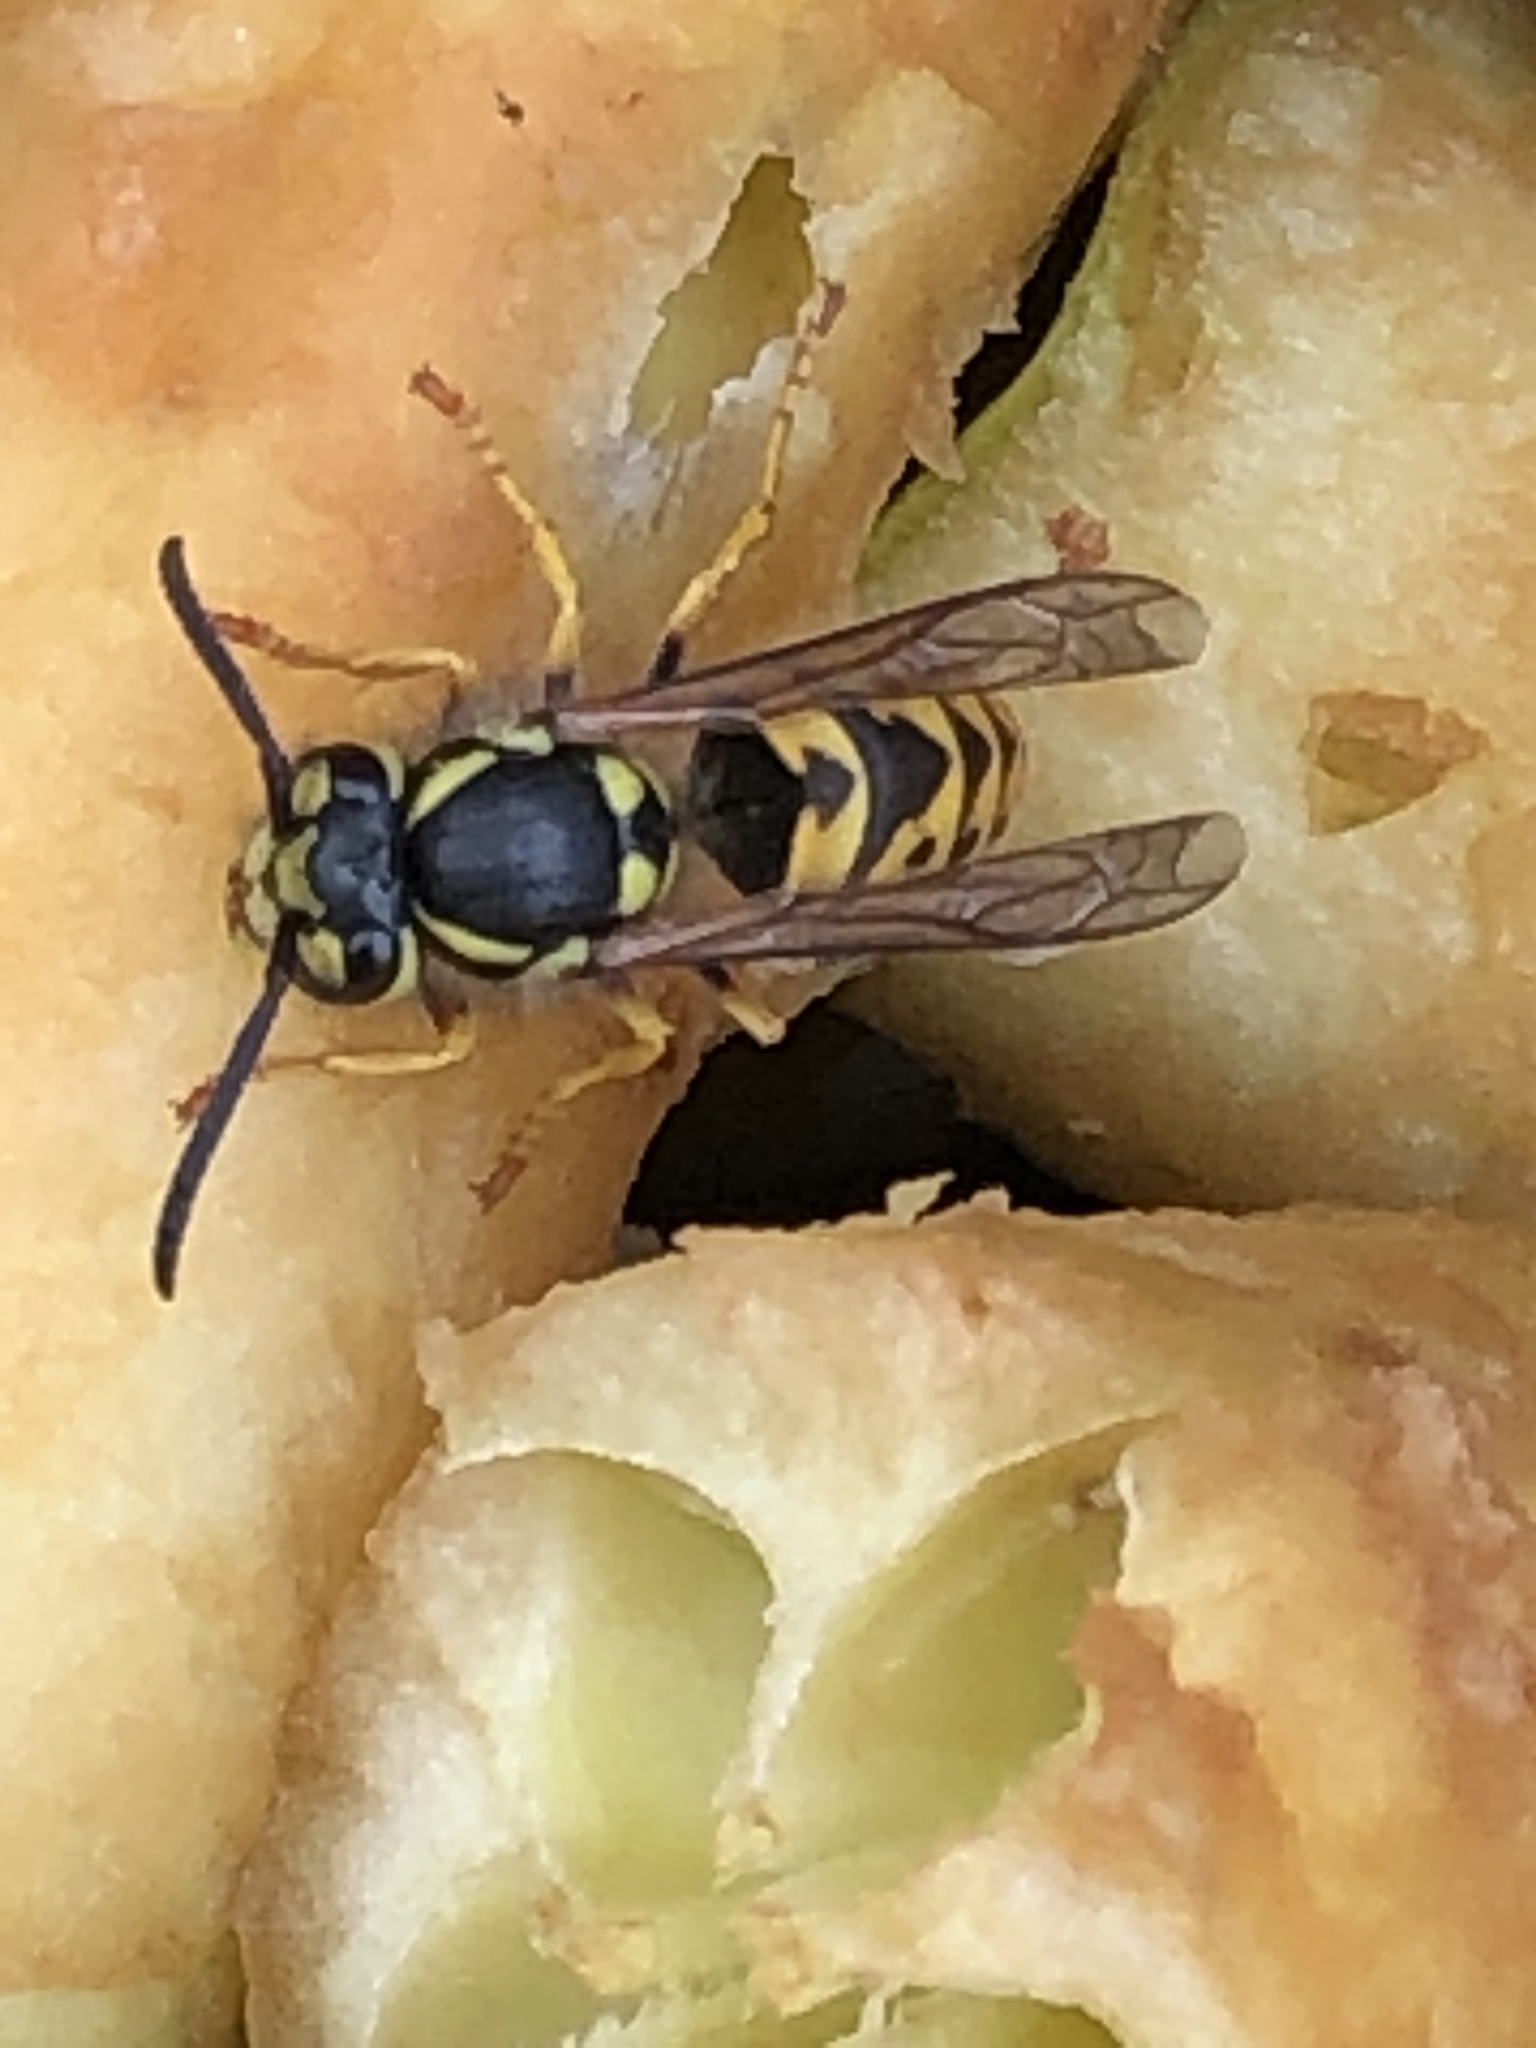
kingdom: Animalia
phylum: Arthropoda
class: Insecta
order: Hymenoptera
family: Vespidae
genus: Vespula
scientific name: Vespula germanica
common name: German wasp
